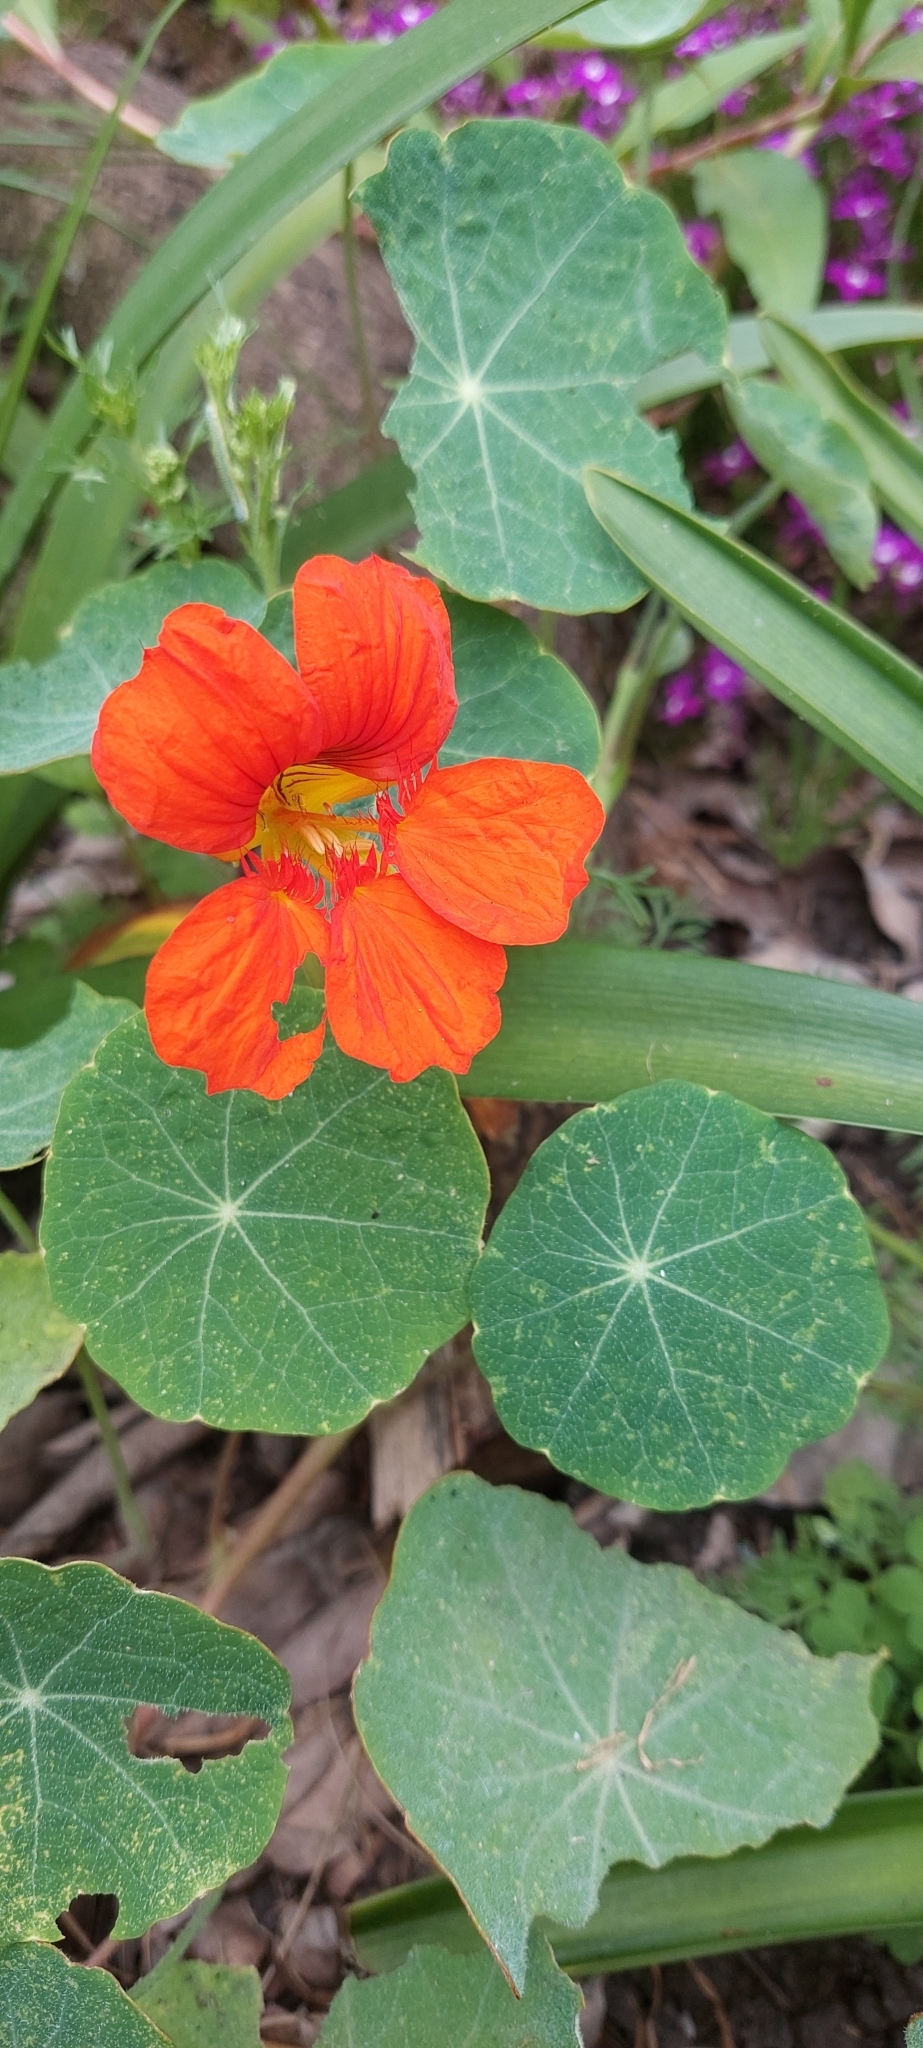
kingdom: Plantae
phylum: Tracheophyta
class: Magnoliopsida
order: Brassicales
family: Tropaeolaceae
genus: Tropaeolum
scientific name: Tropaeolum majus
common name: Nasturtium
